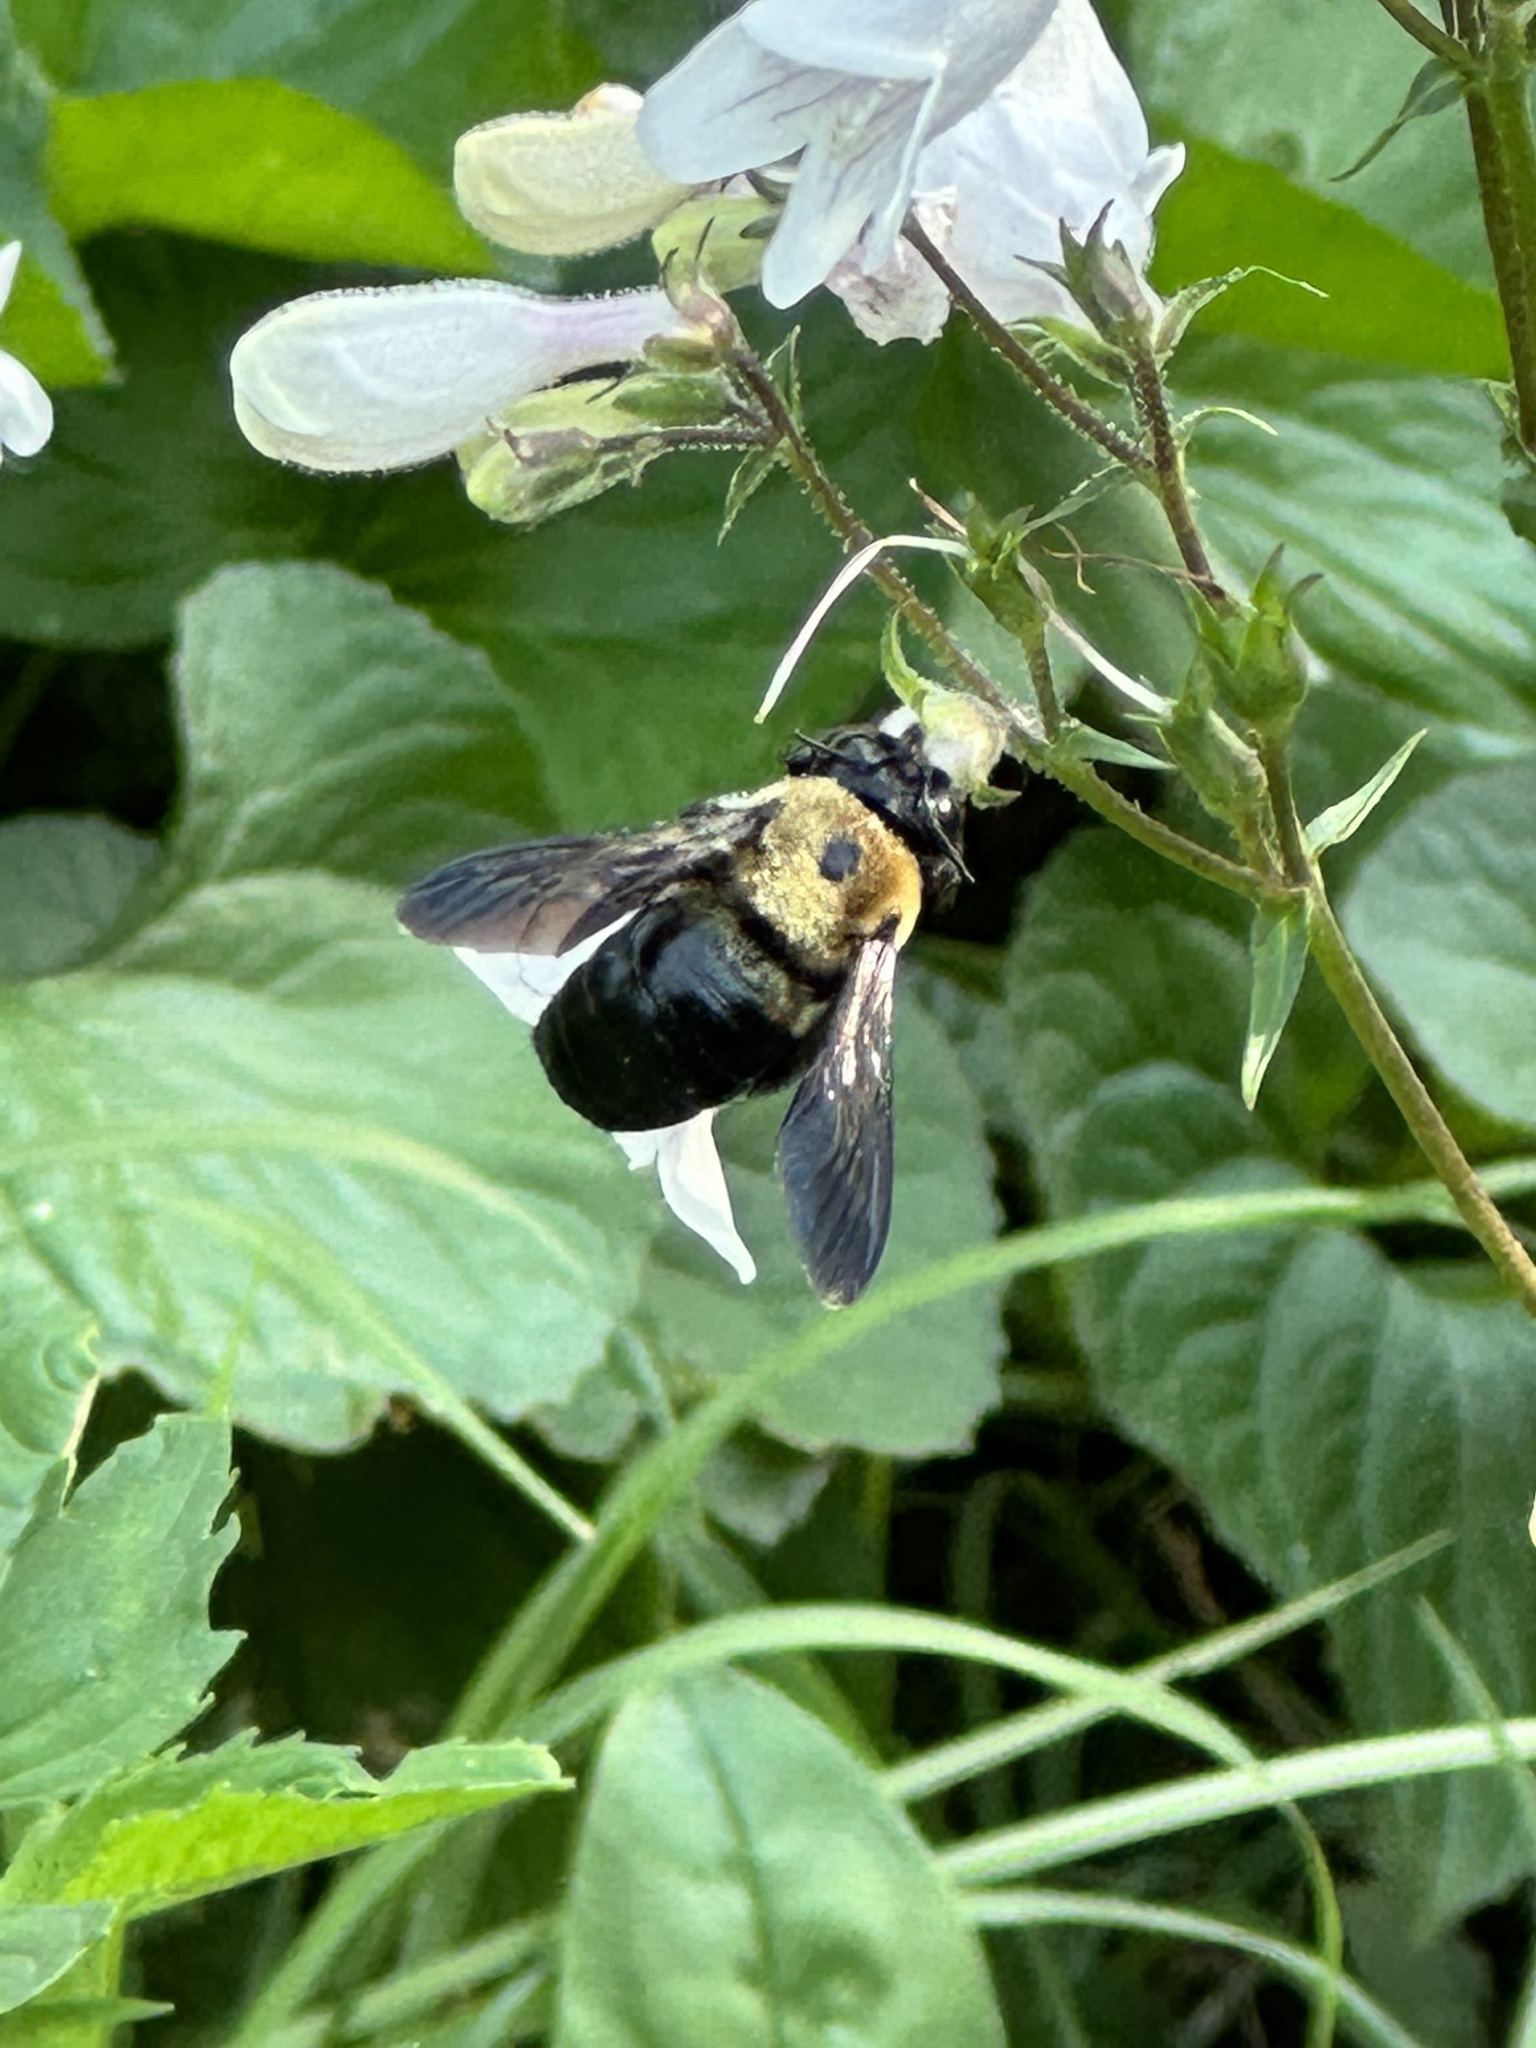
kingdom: Animalia
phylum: Arthropoda
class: Insecta
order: Hymenoptera
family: Apidae
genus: Xylocopa
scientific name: Xylocopa virginica
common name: Carpenter bee
